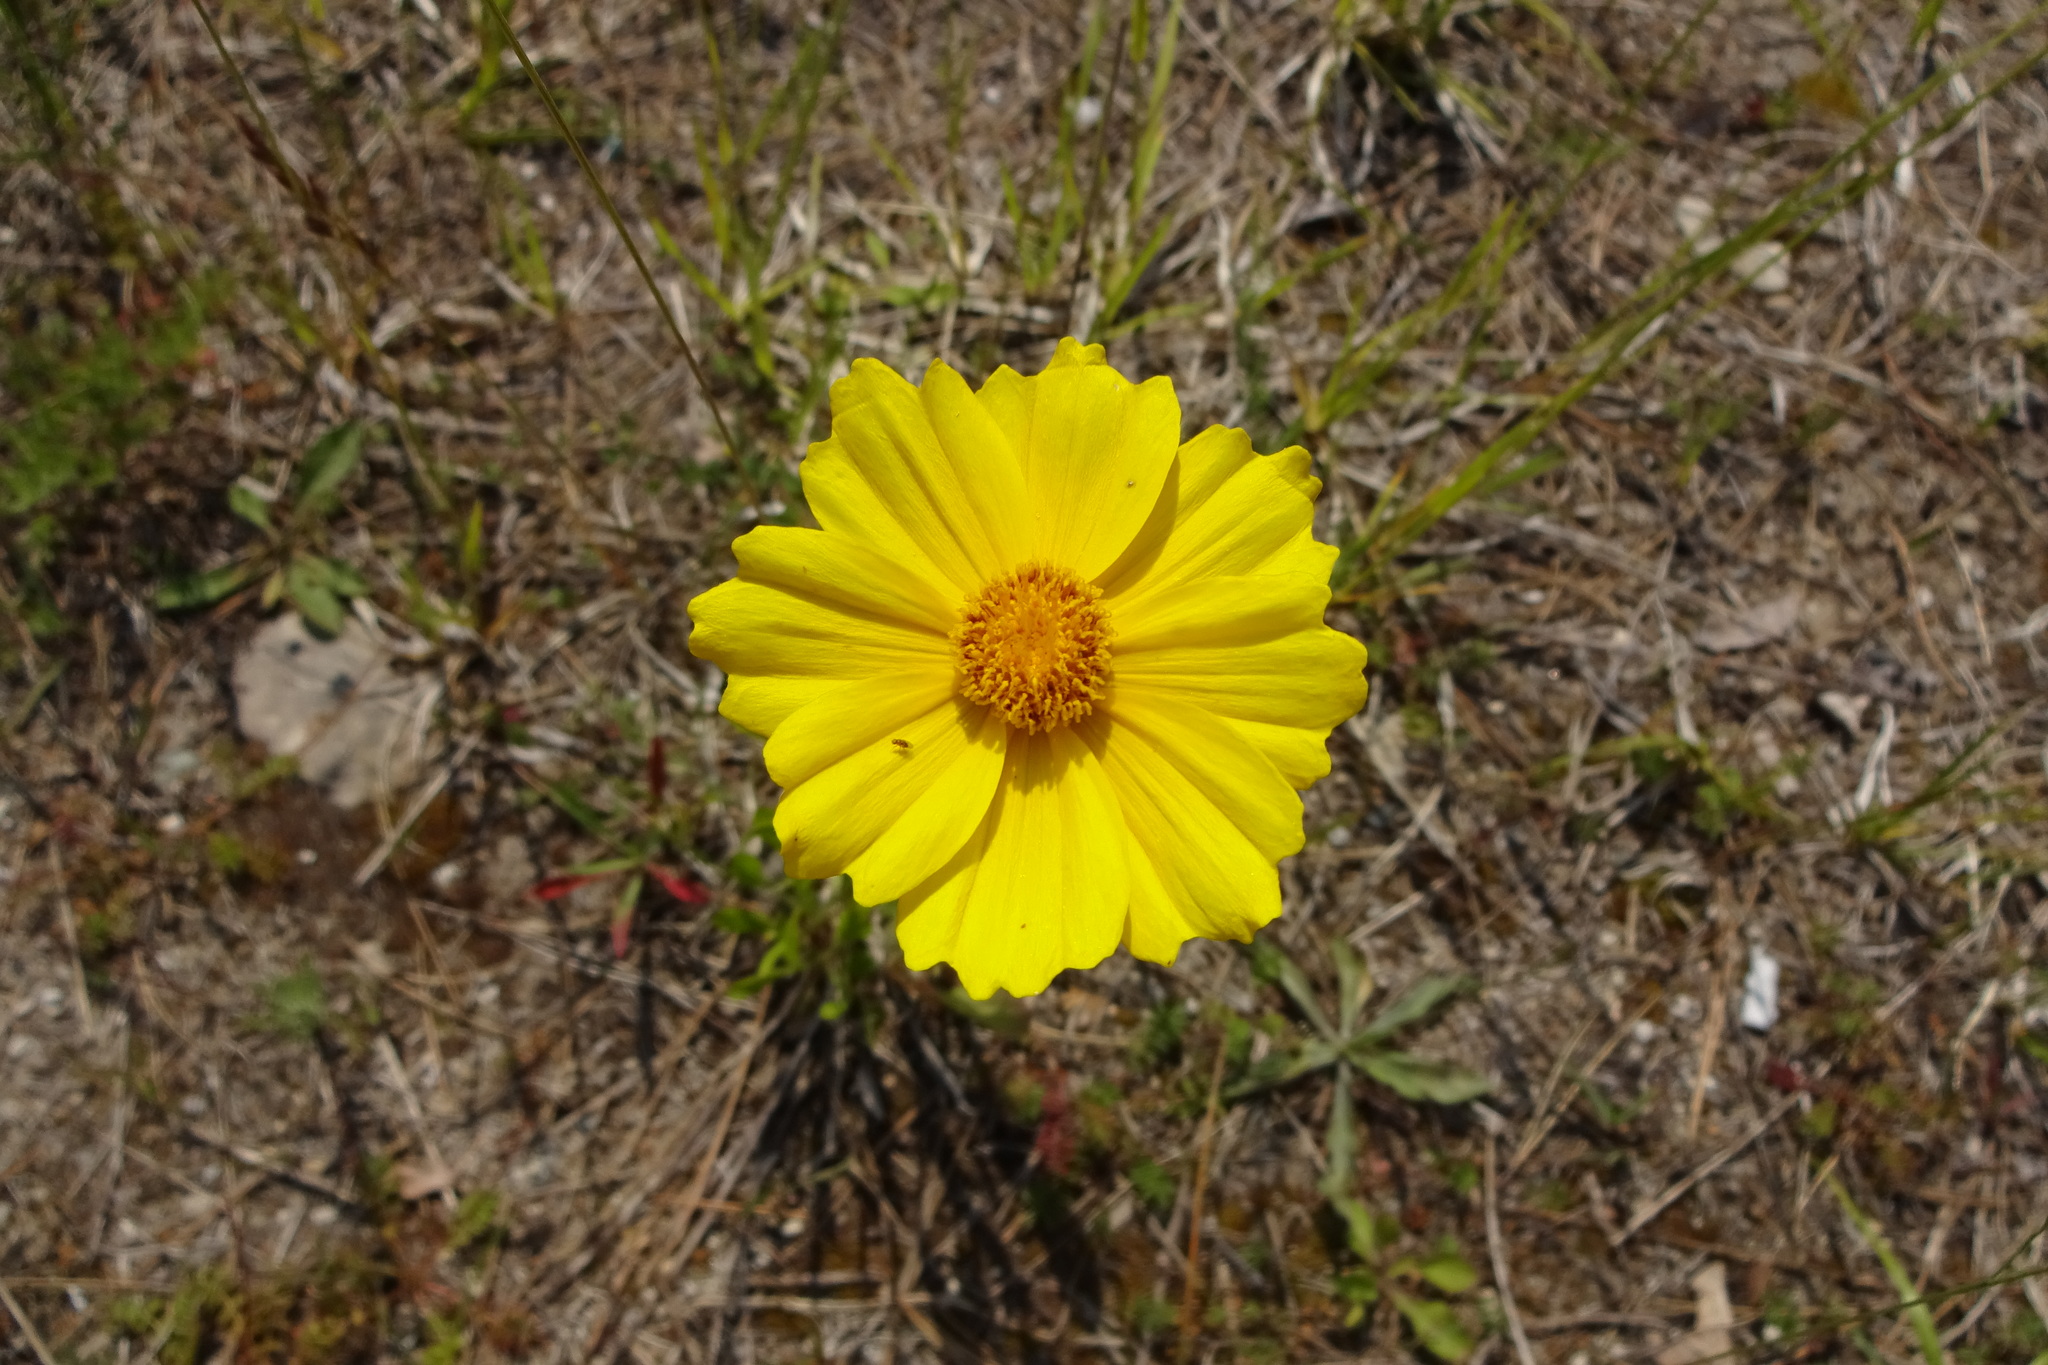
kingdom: Plantae
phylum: Tracheophyta
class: Magnoliopsida
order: Asterales
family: Asteraceae
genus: Coreopsis
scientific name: Coreopsis lanceolata
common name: Garden coreopsis
